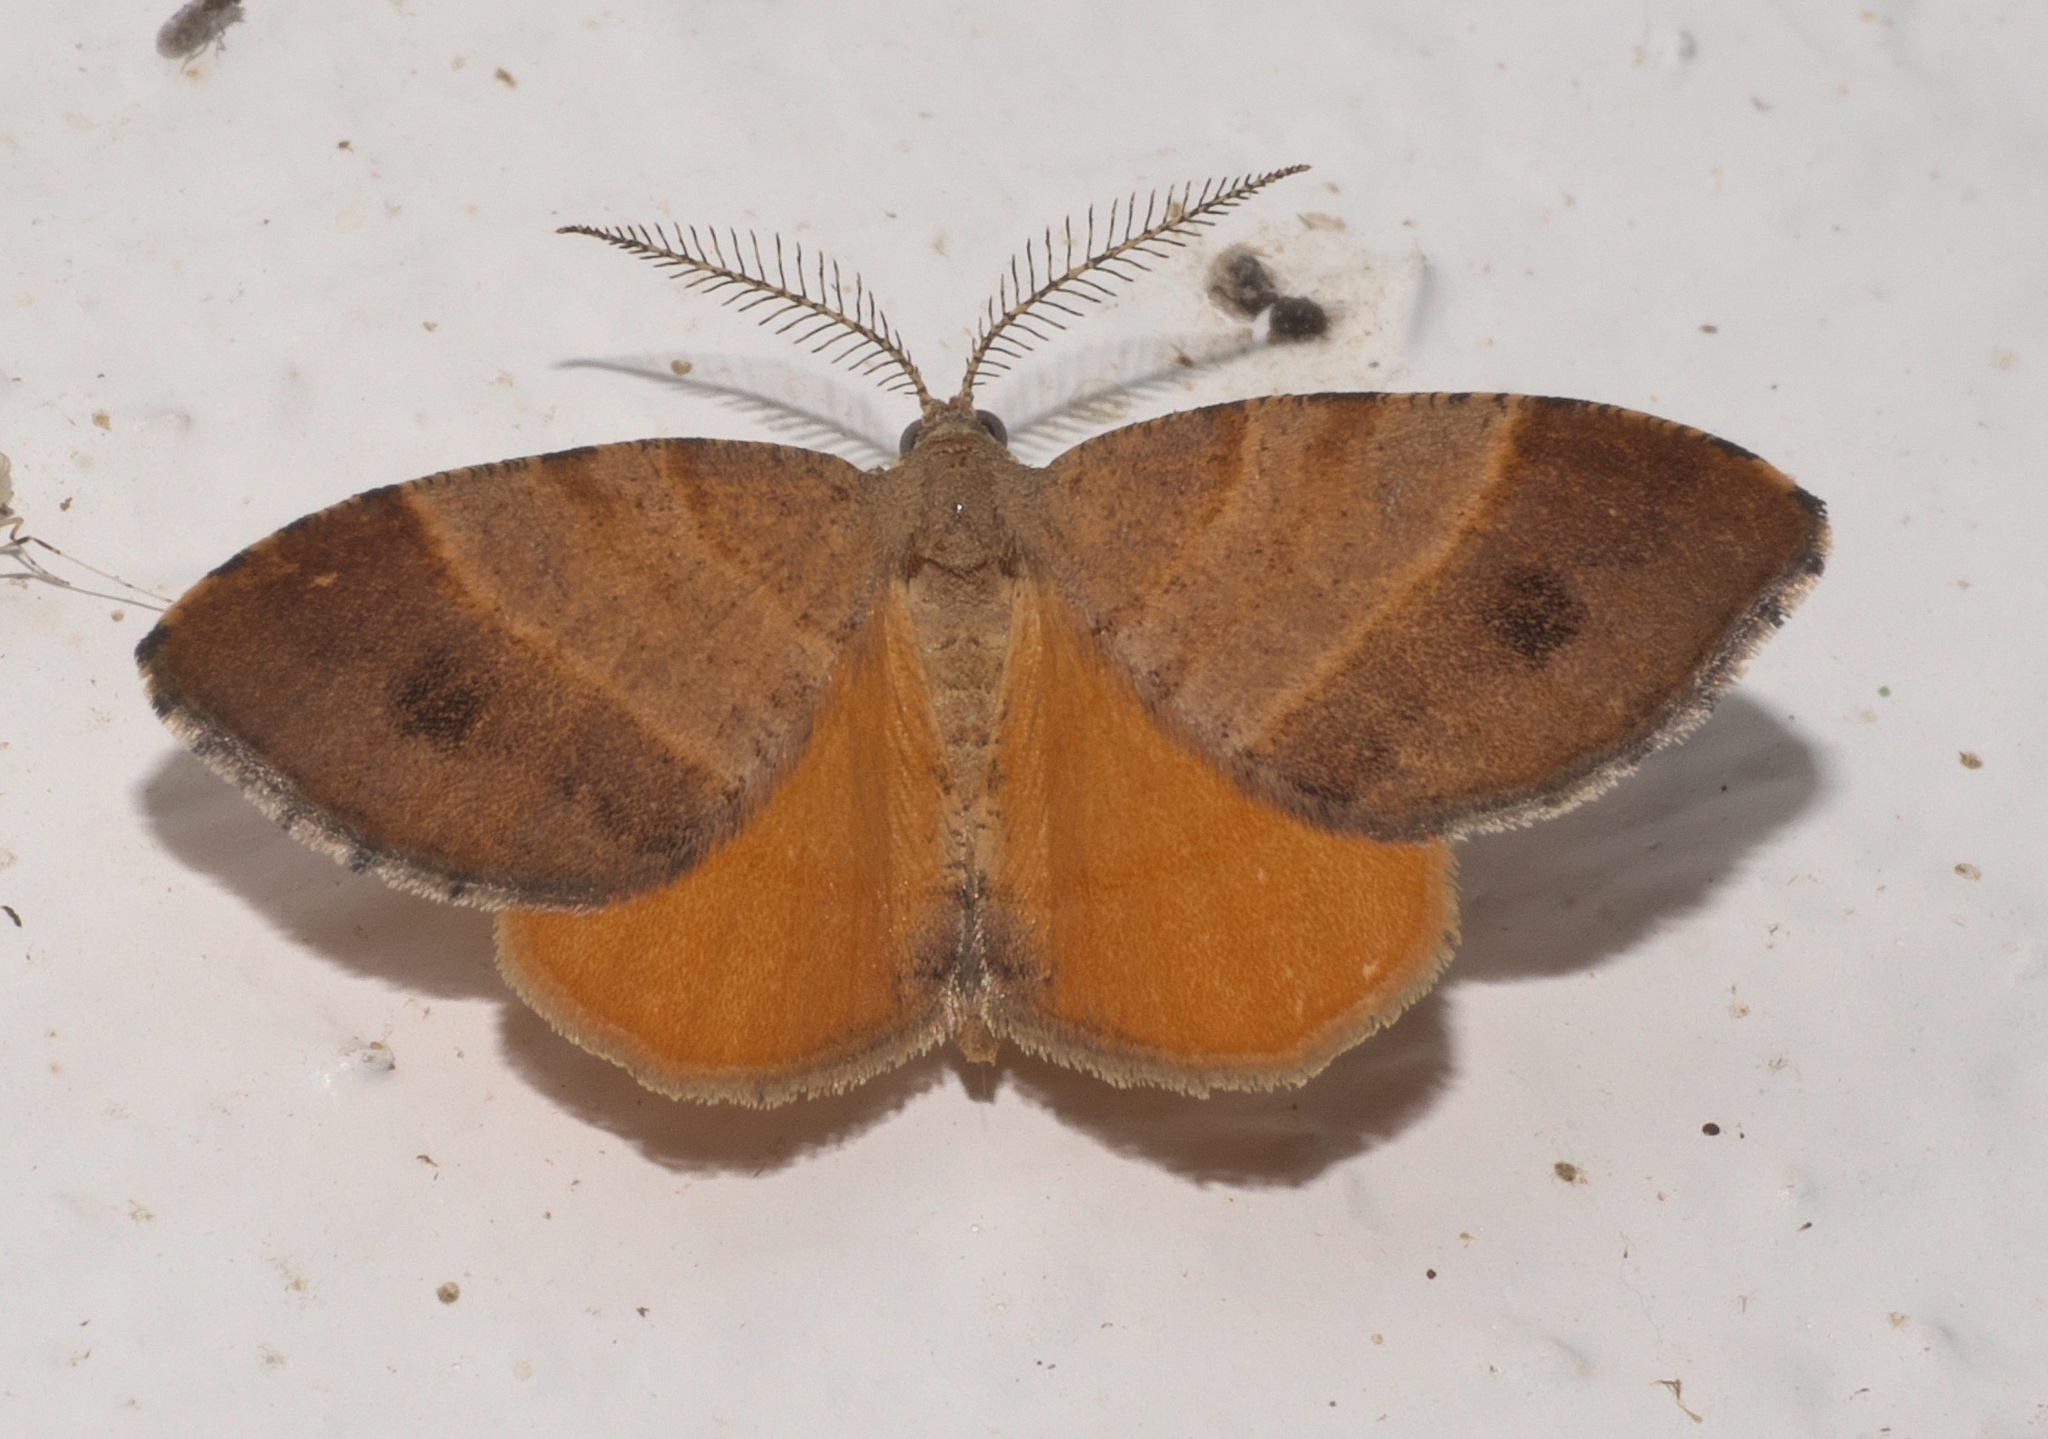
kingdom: Animalia
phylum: Arthropoda
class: Insecta
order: Lepidoptera
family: Geometridae
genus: Mellilla
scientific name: Mellilla xanthometata
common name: Orange wing moth
